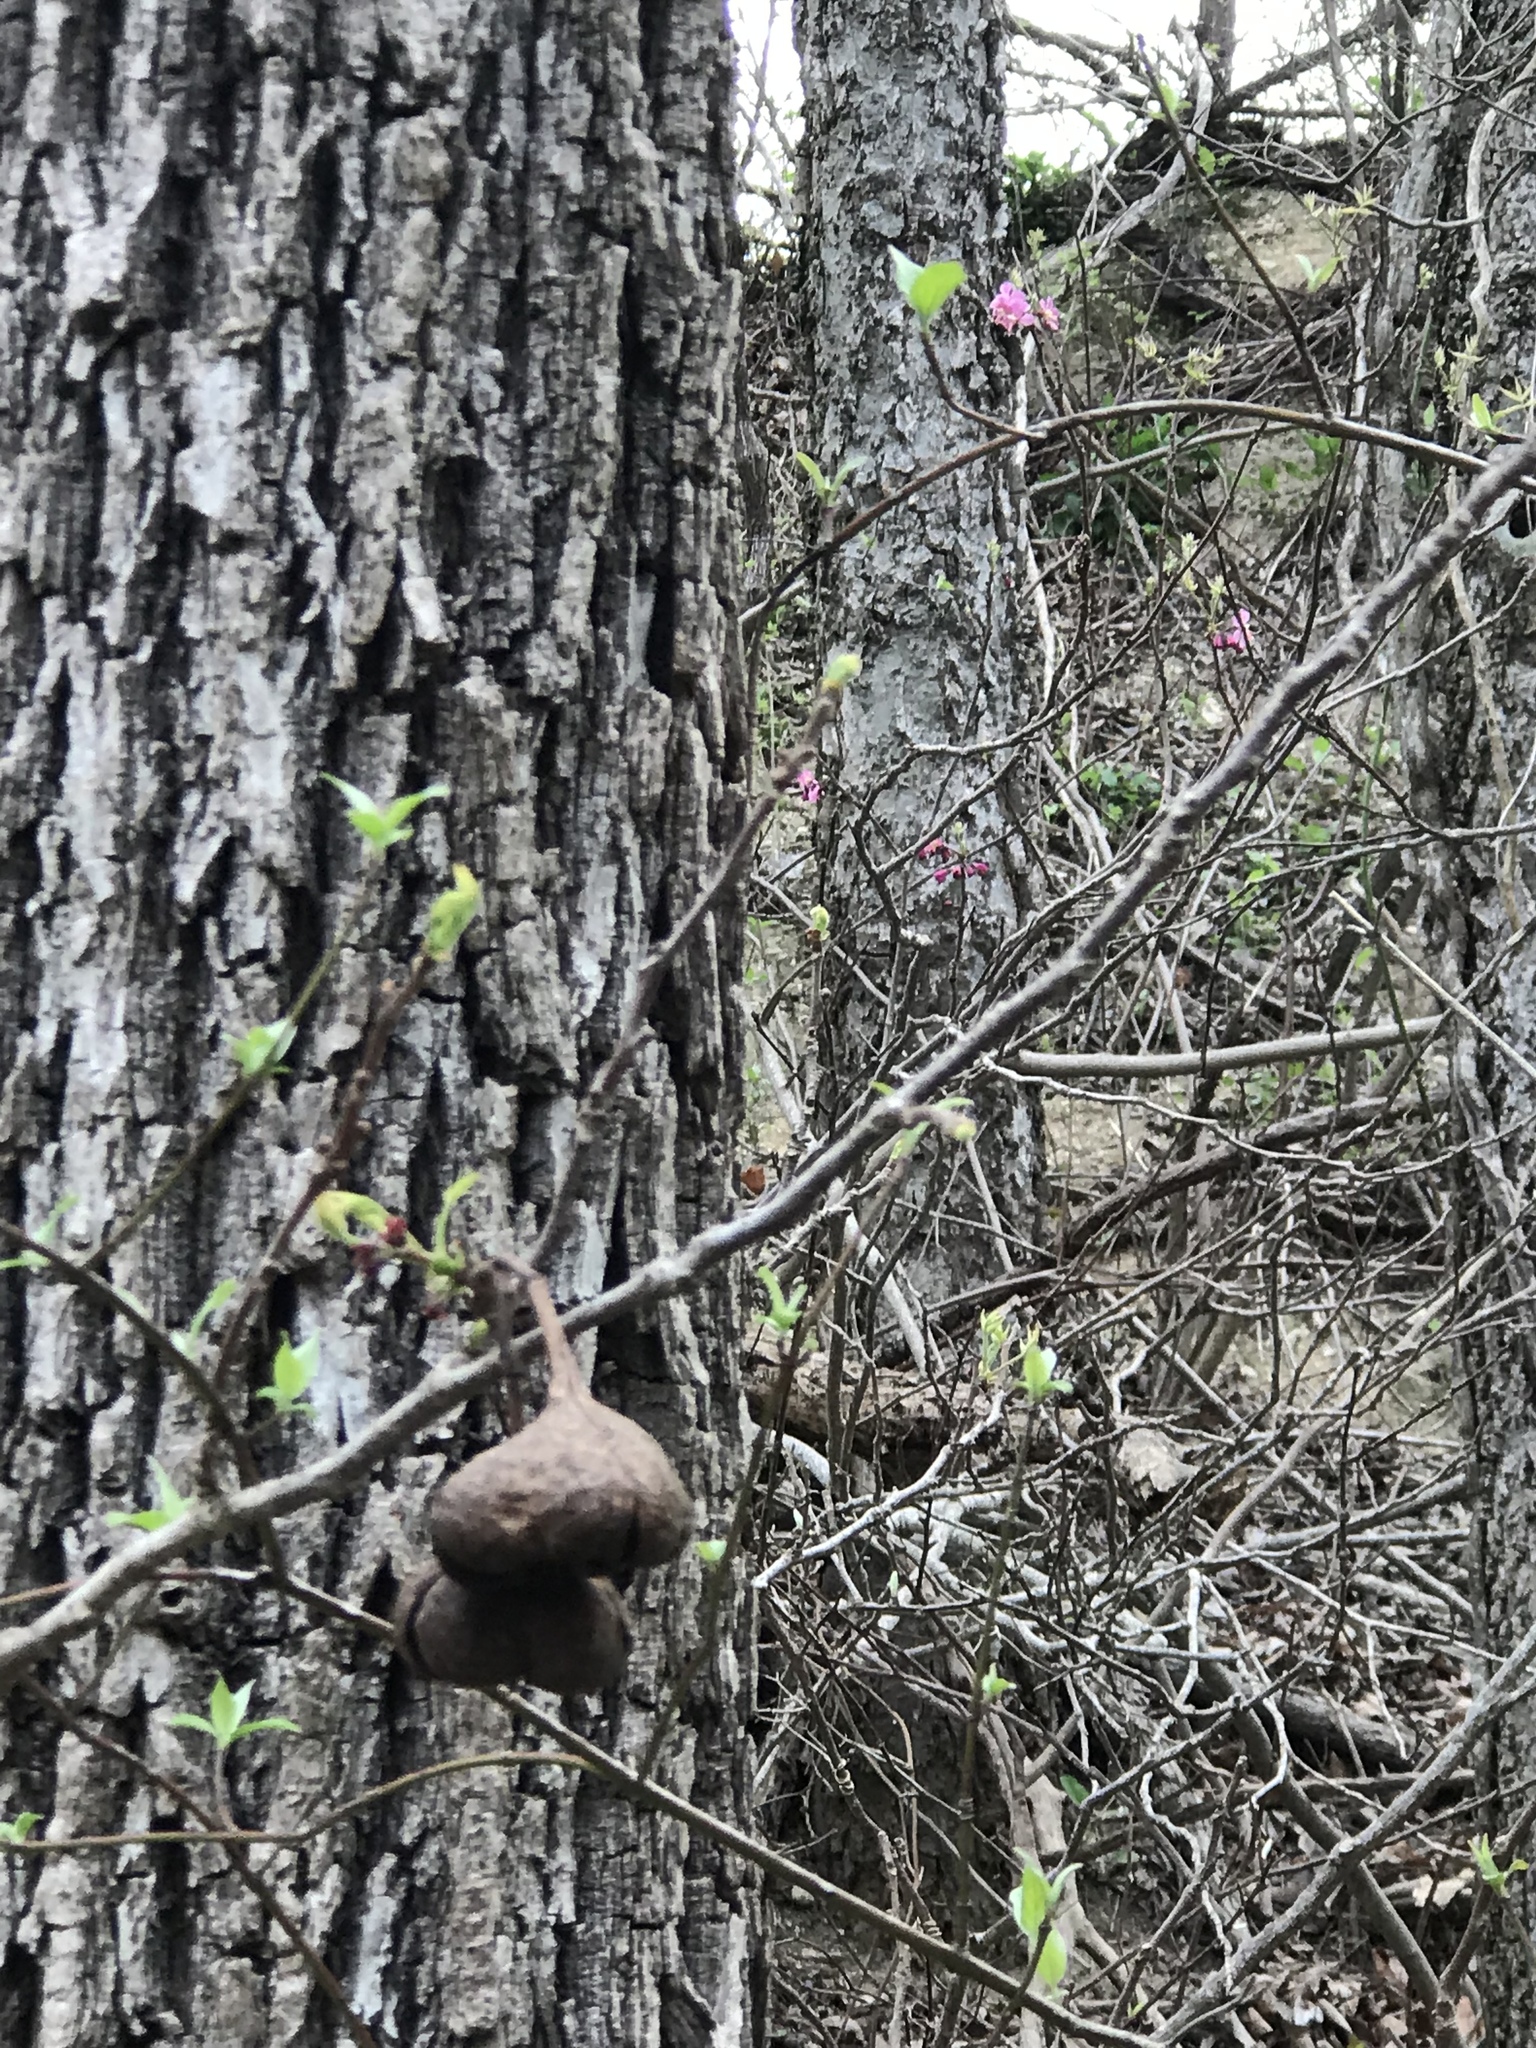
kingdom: Plantae
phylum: Tracheophyta
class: Magnoliopsida
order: Sapindales
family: Sapindaceae
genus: Ungnadia
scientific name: Ungnadia speciosa
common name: Texas-buckeye
